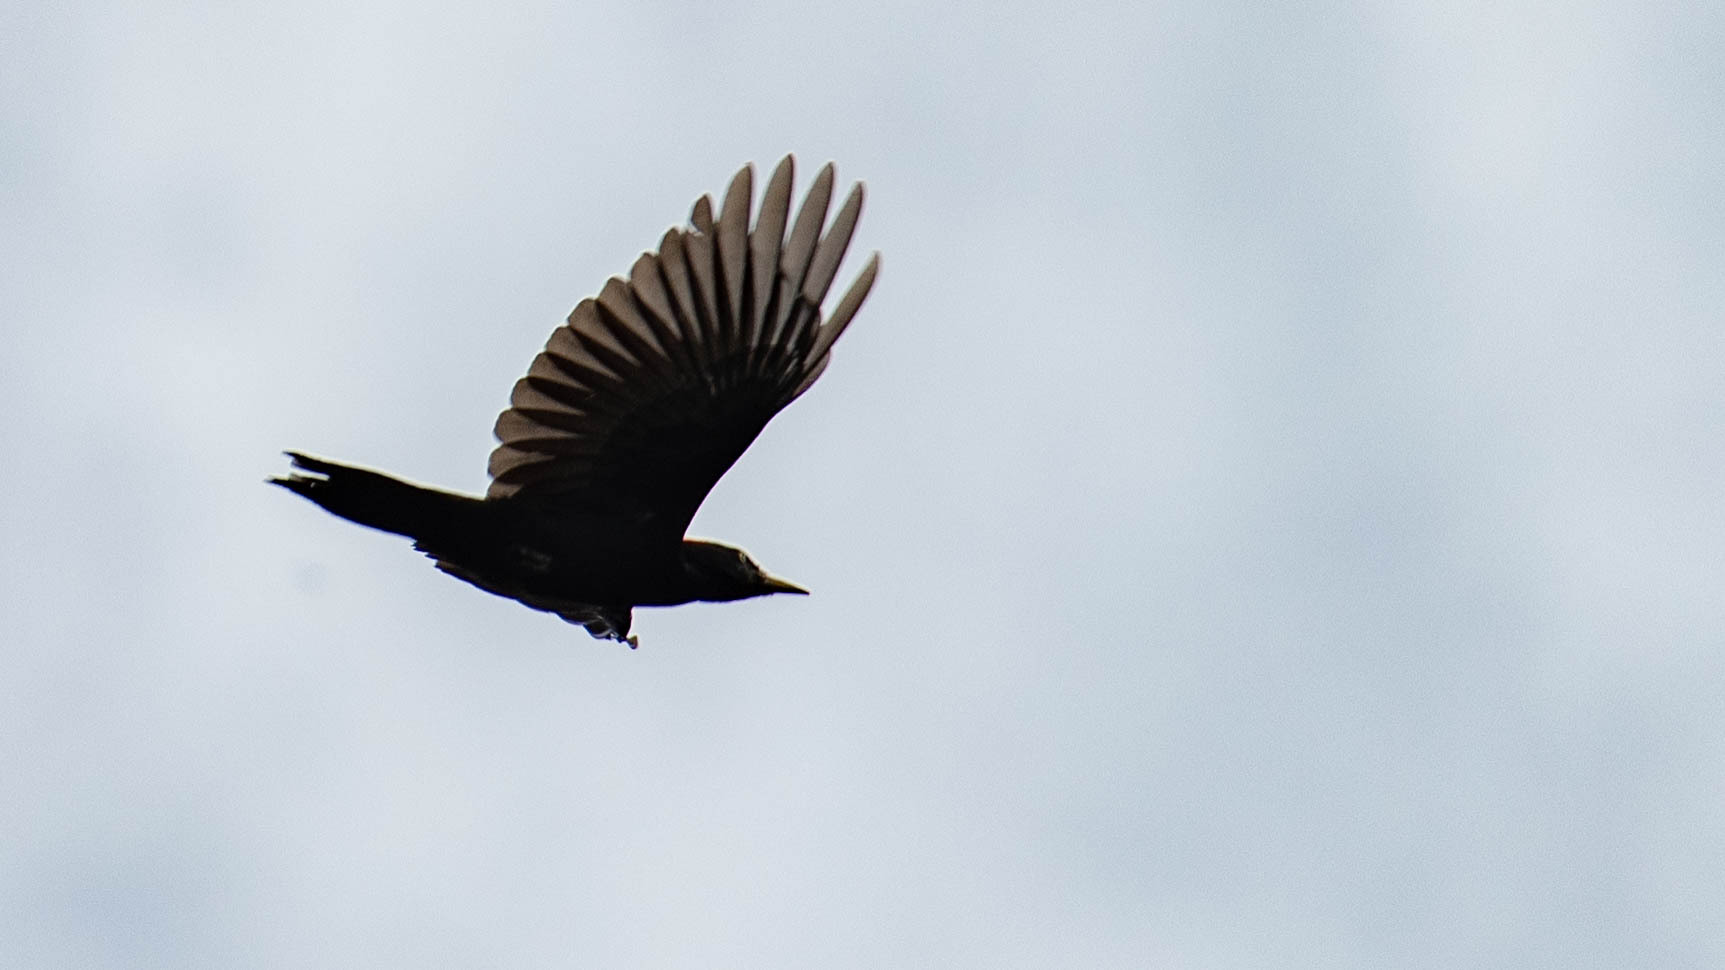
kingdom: Animalia
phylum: Chordata
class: Aves
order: Piciformes
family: Picidae
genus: Dryocopus
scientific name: Dryocopus martius
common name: Black woodpecker
